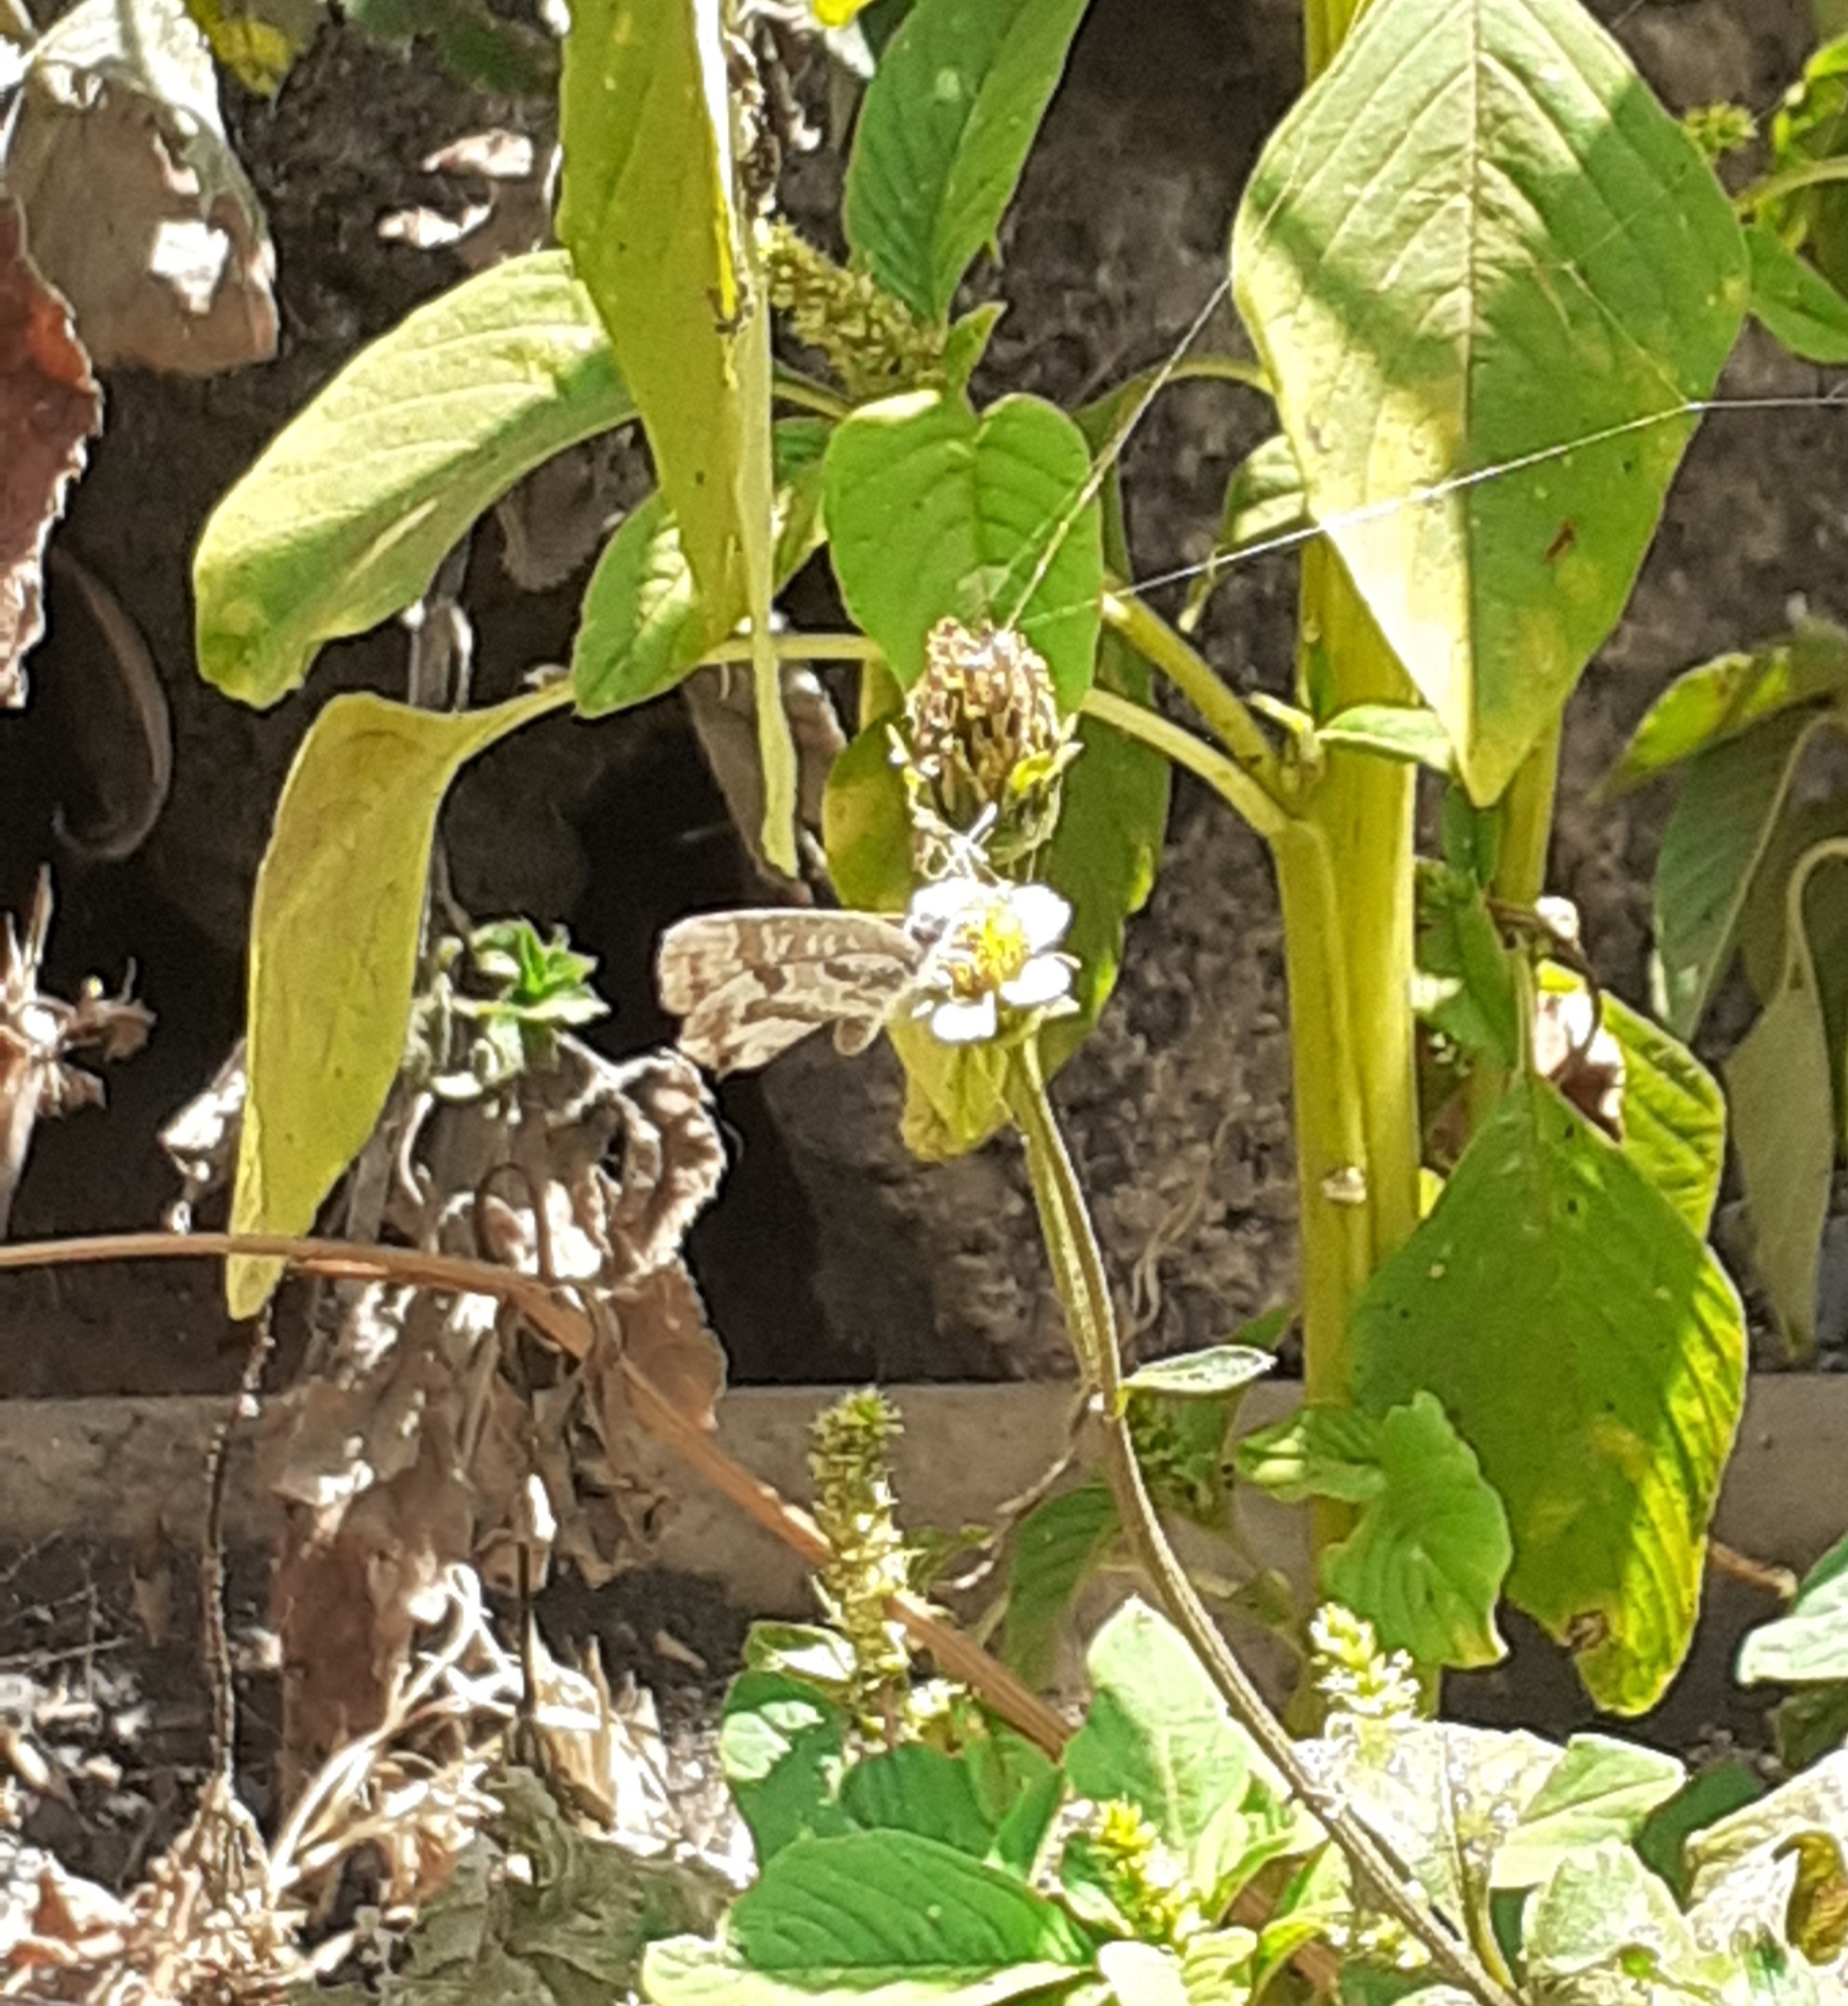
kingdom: Animalia
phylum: Arthropoda
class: Insecta
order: Lepidoptera
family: Lycaenidae
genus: Cacyreus
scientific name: Cacyreus marshalli
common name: Geranium bronze
